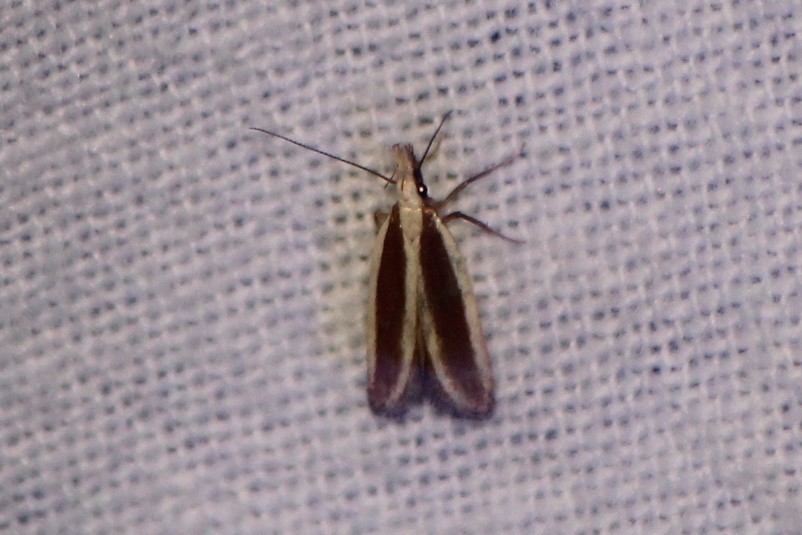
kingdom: Animalia
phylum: Arthropoda
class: Insecta
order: Lepidoptera
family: Gelechiidae
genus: Dichomeris
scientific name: Dichomeris marginella
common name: Juniper webworm
